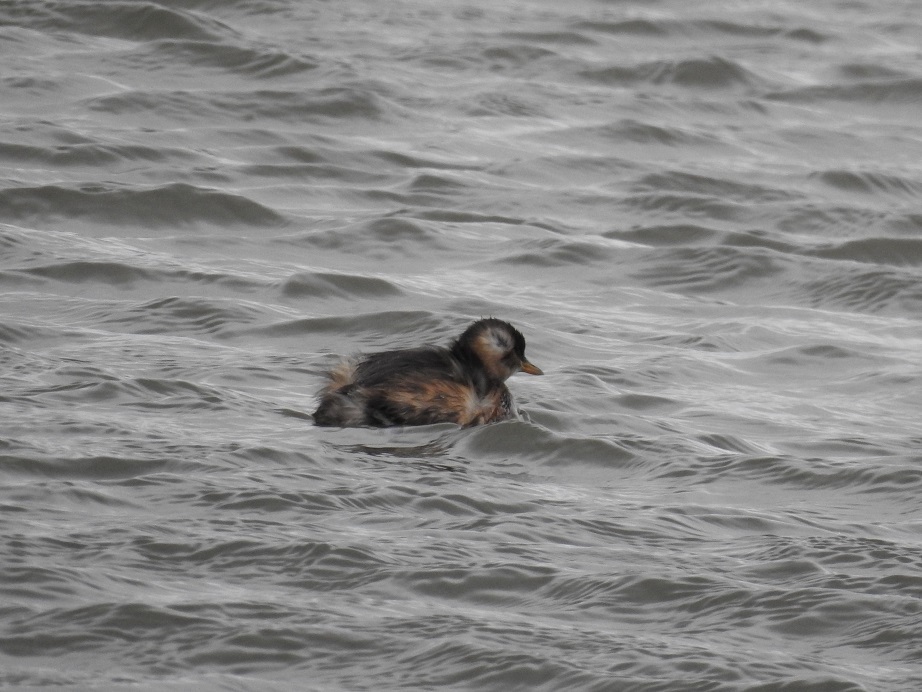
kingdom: Animalia
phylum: Chordata
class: Aves
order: Podicipediformes
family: Podicipedidae
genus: Tachybaptus
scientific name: Tachybaptus ruficollis
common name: Little grebe
